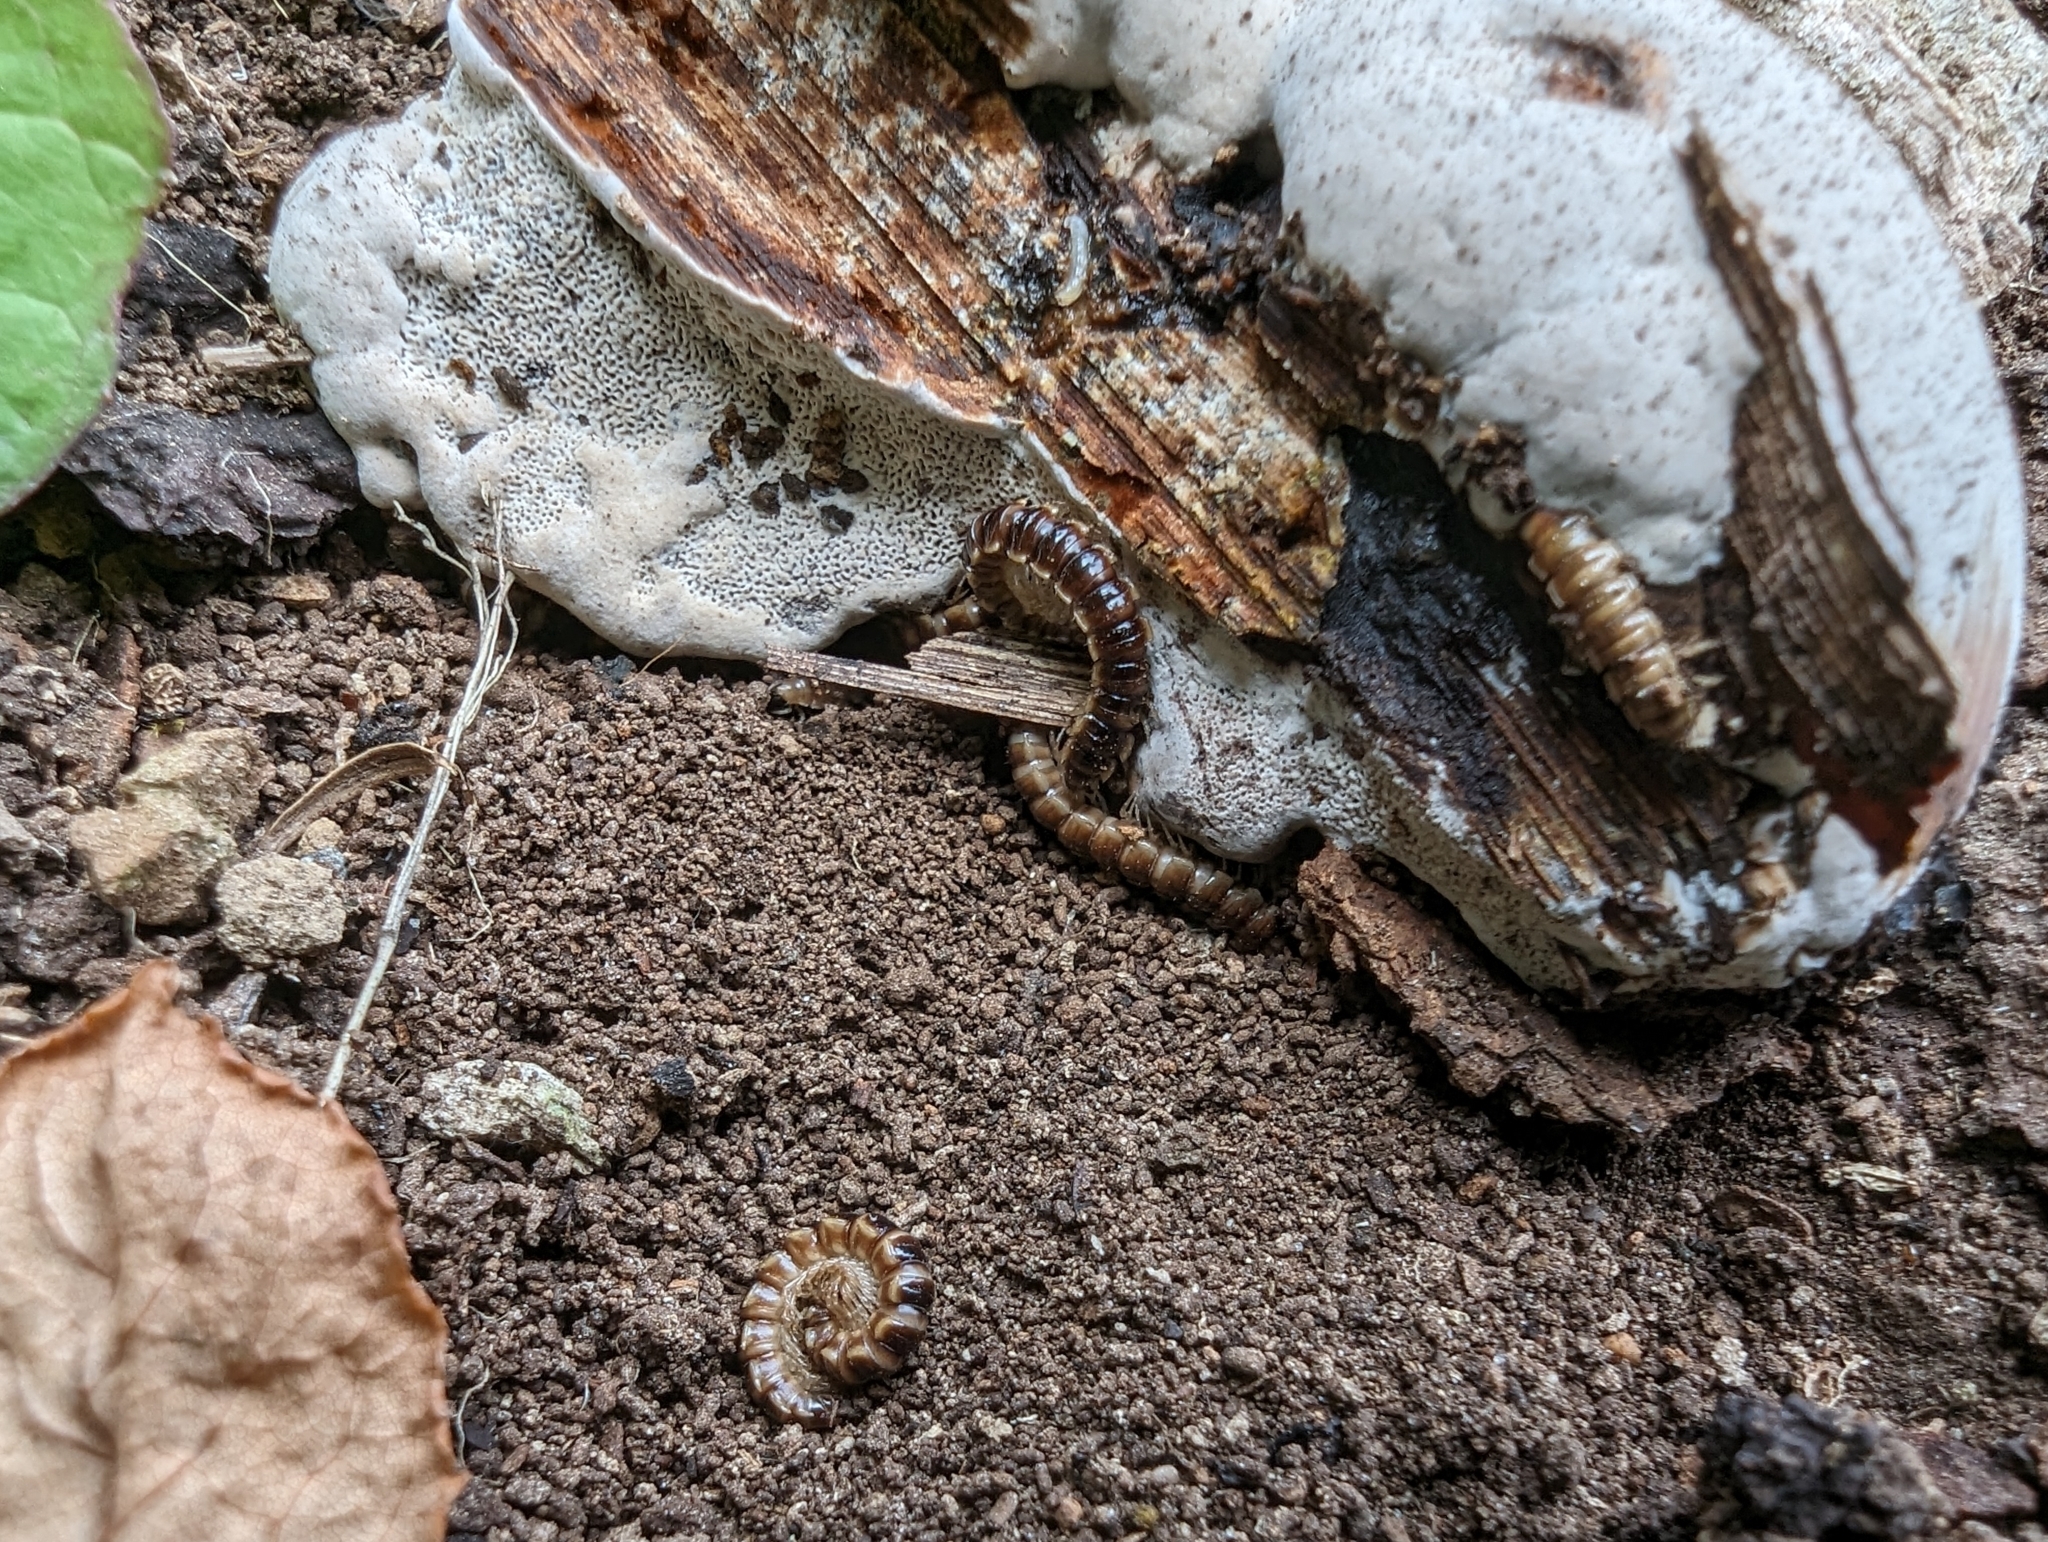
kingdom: Animalia
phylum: Arthropoda
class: Diplopoda
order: Polydesmida
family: Paradoxosomatidae
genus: Oxidus
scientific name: Oxidus gracilis
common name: Greenhouse millipede
